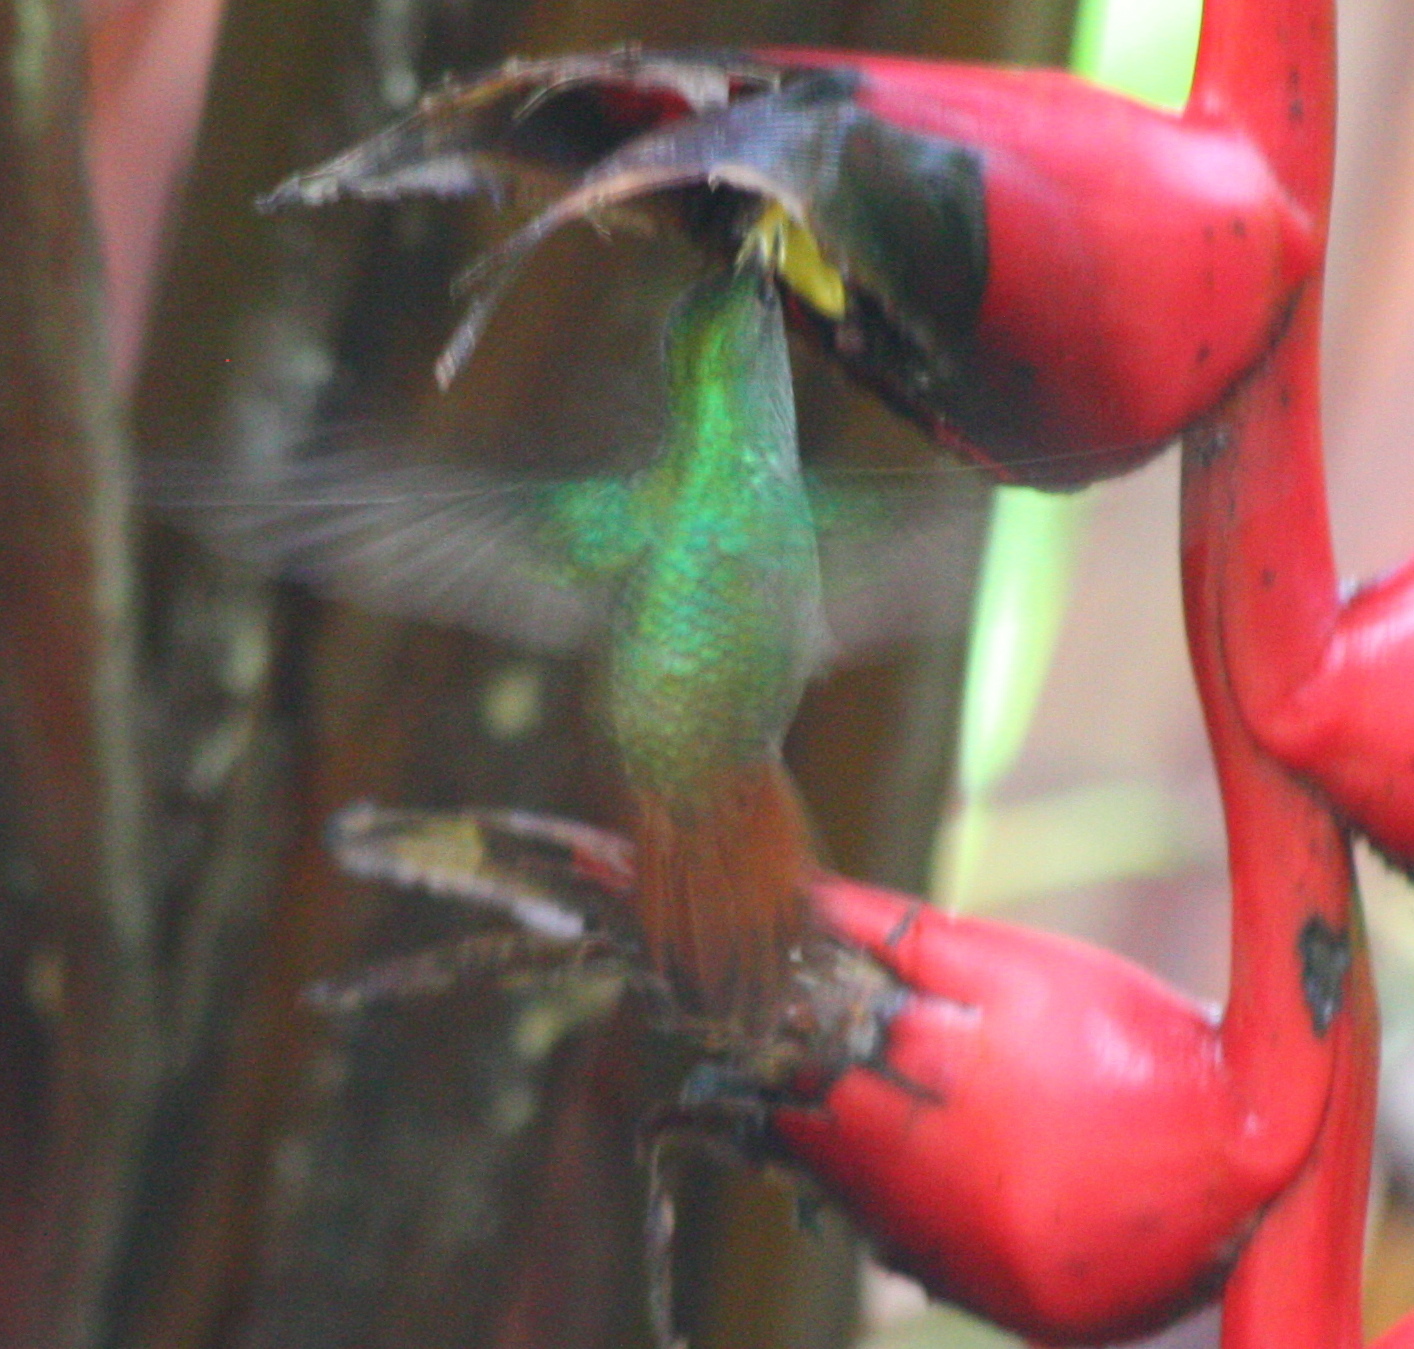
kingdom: Animalia
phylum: Chordata
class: Aves
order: Apodiformes
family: Trochilidae
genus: Amazilia
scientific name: Amazilia tzacatl
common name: Rufous-tailed hummingbird
